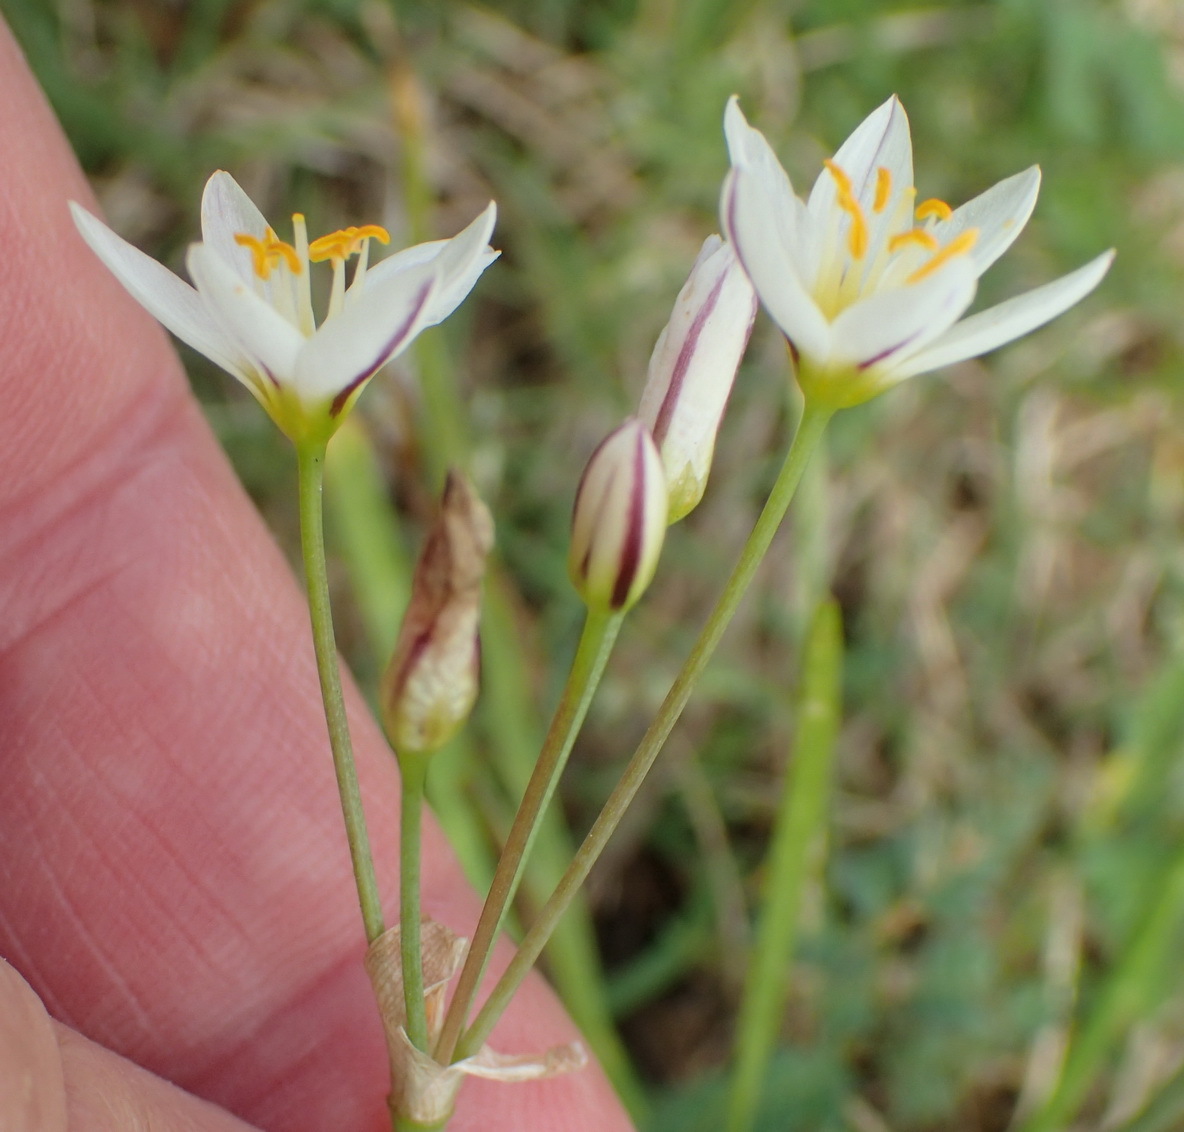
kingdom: Plantae
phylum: Tracheophyta
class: Liliopsida
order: Asparagales
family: Amaryllidaceae
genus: Nothoscordum
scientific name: Nothoscordum bivalve
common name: Crow-poison
